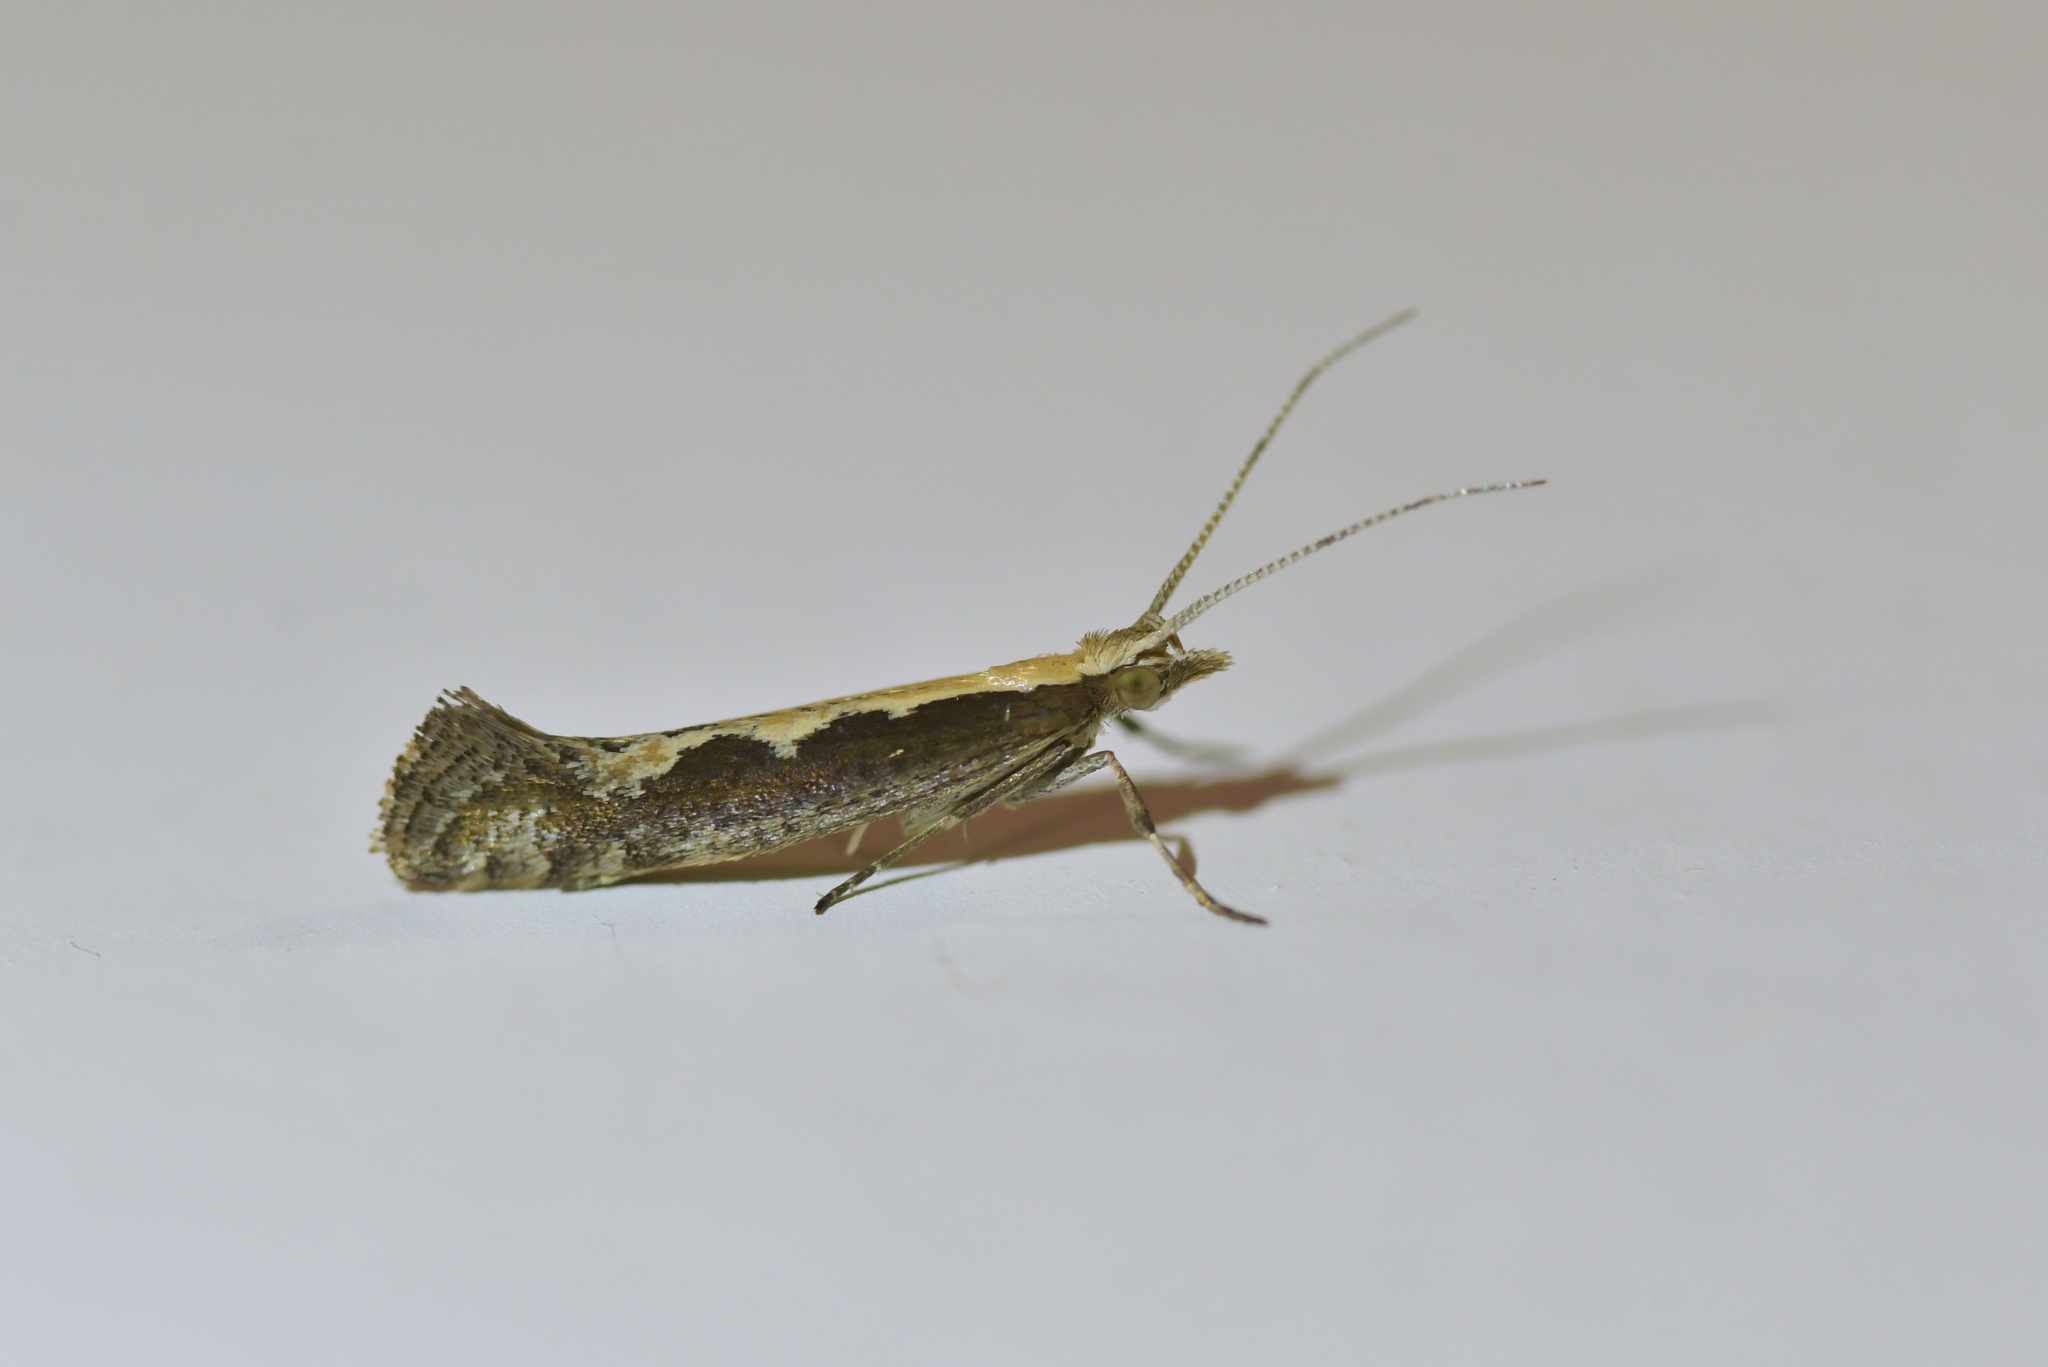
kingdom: Animalia
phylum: Arthropoda
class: Insecta
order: Lepidoptera
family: Plutellidae
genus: Plutella
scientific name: Plutella xylostella
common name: Diamond-back moth
